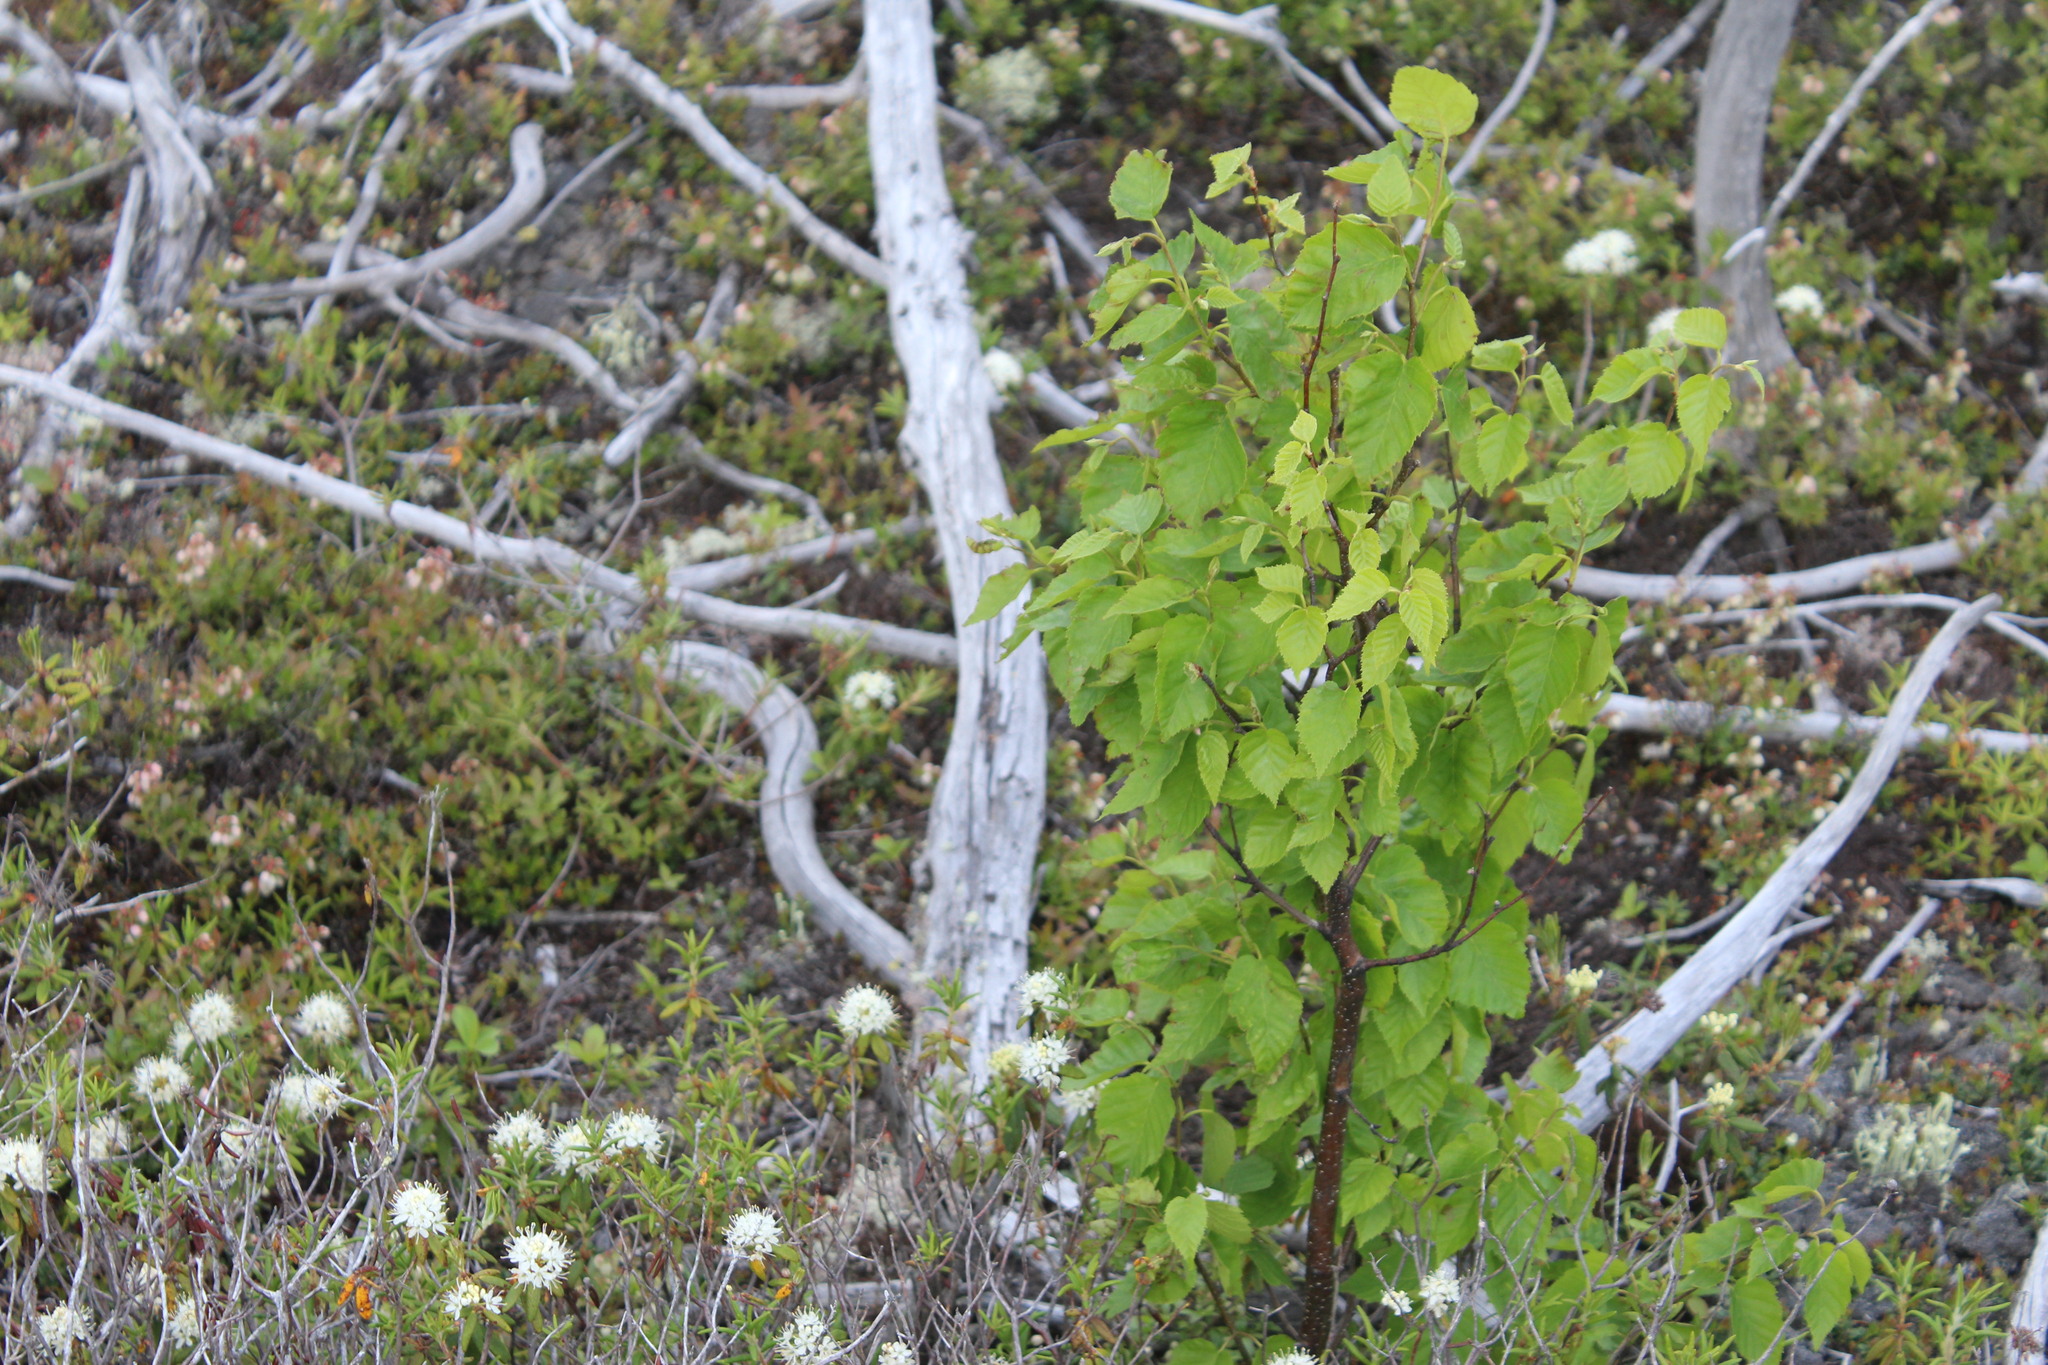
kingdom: Plantae
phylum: Tracheophyta
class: Magnoliopsida
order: Fagales
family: Betulaceae
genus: Betula
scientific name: Betula cordifolia
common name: Mountain white birch
